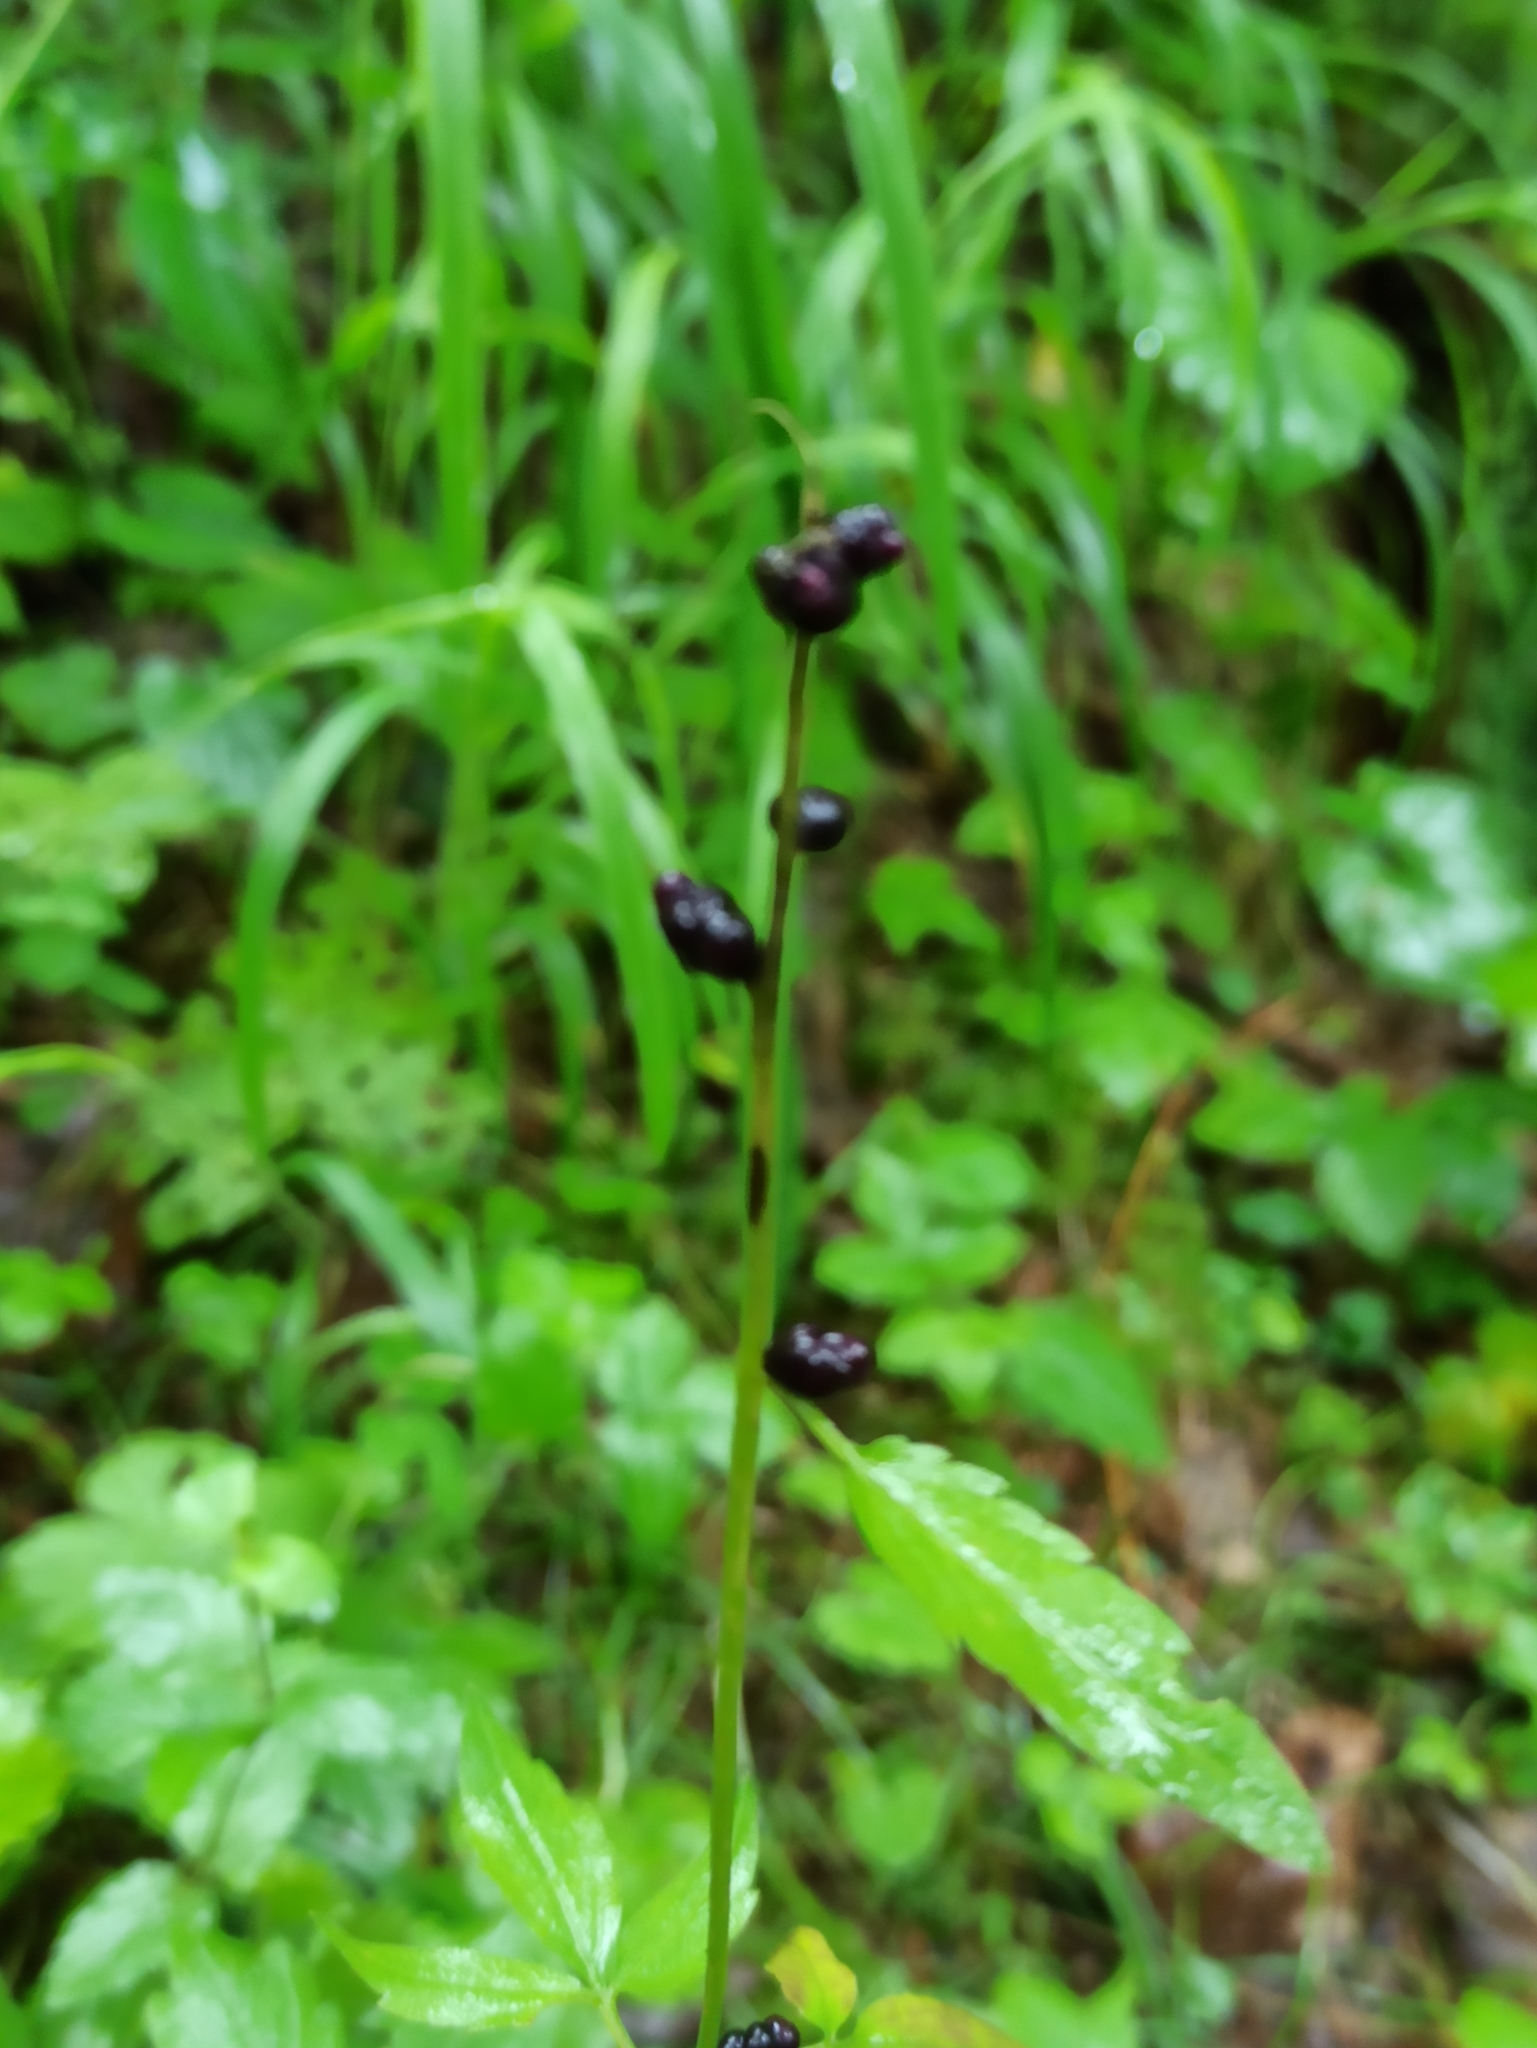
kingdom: Plantae
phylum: Tracheophyta
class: Magnoliopsida
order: Brassicales
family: Brassicaceae
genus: Cardamine
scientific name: Cardamine bulbifera
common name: Coralroot bittercress
